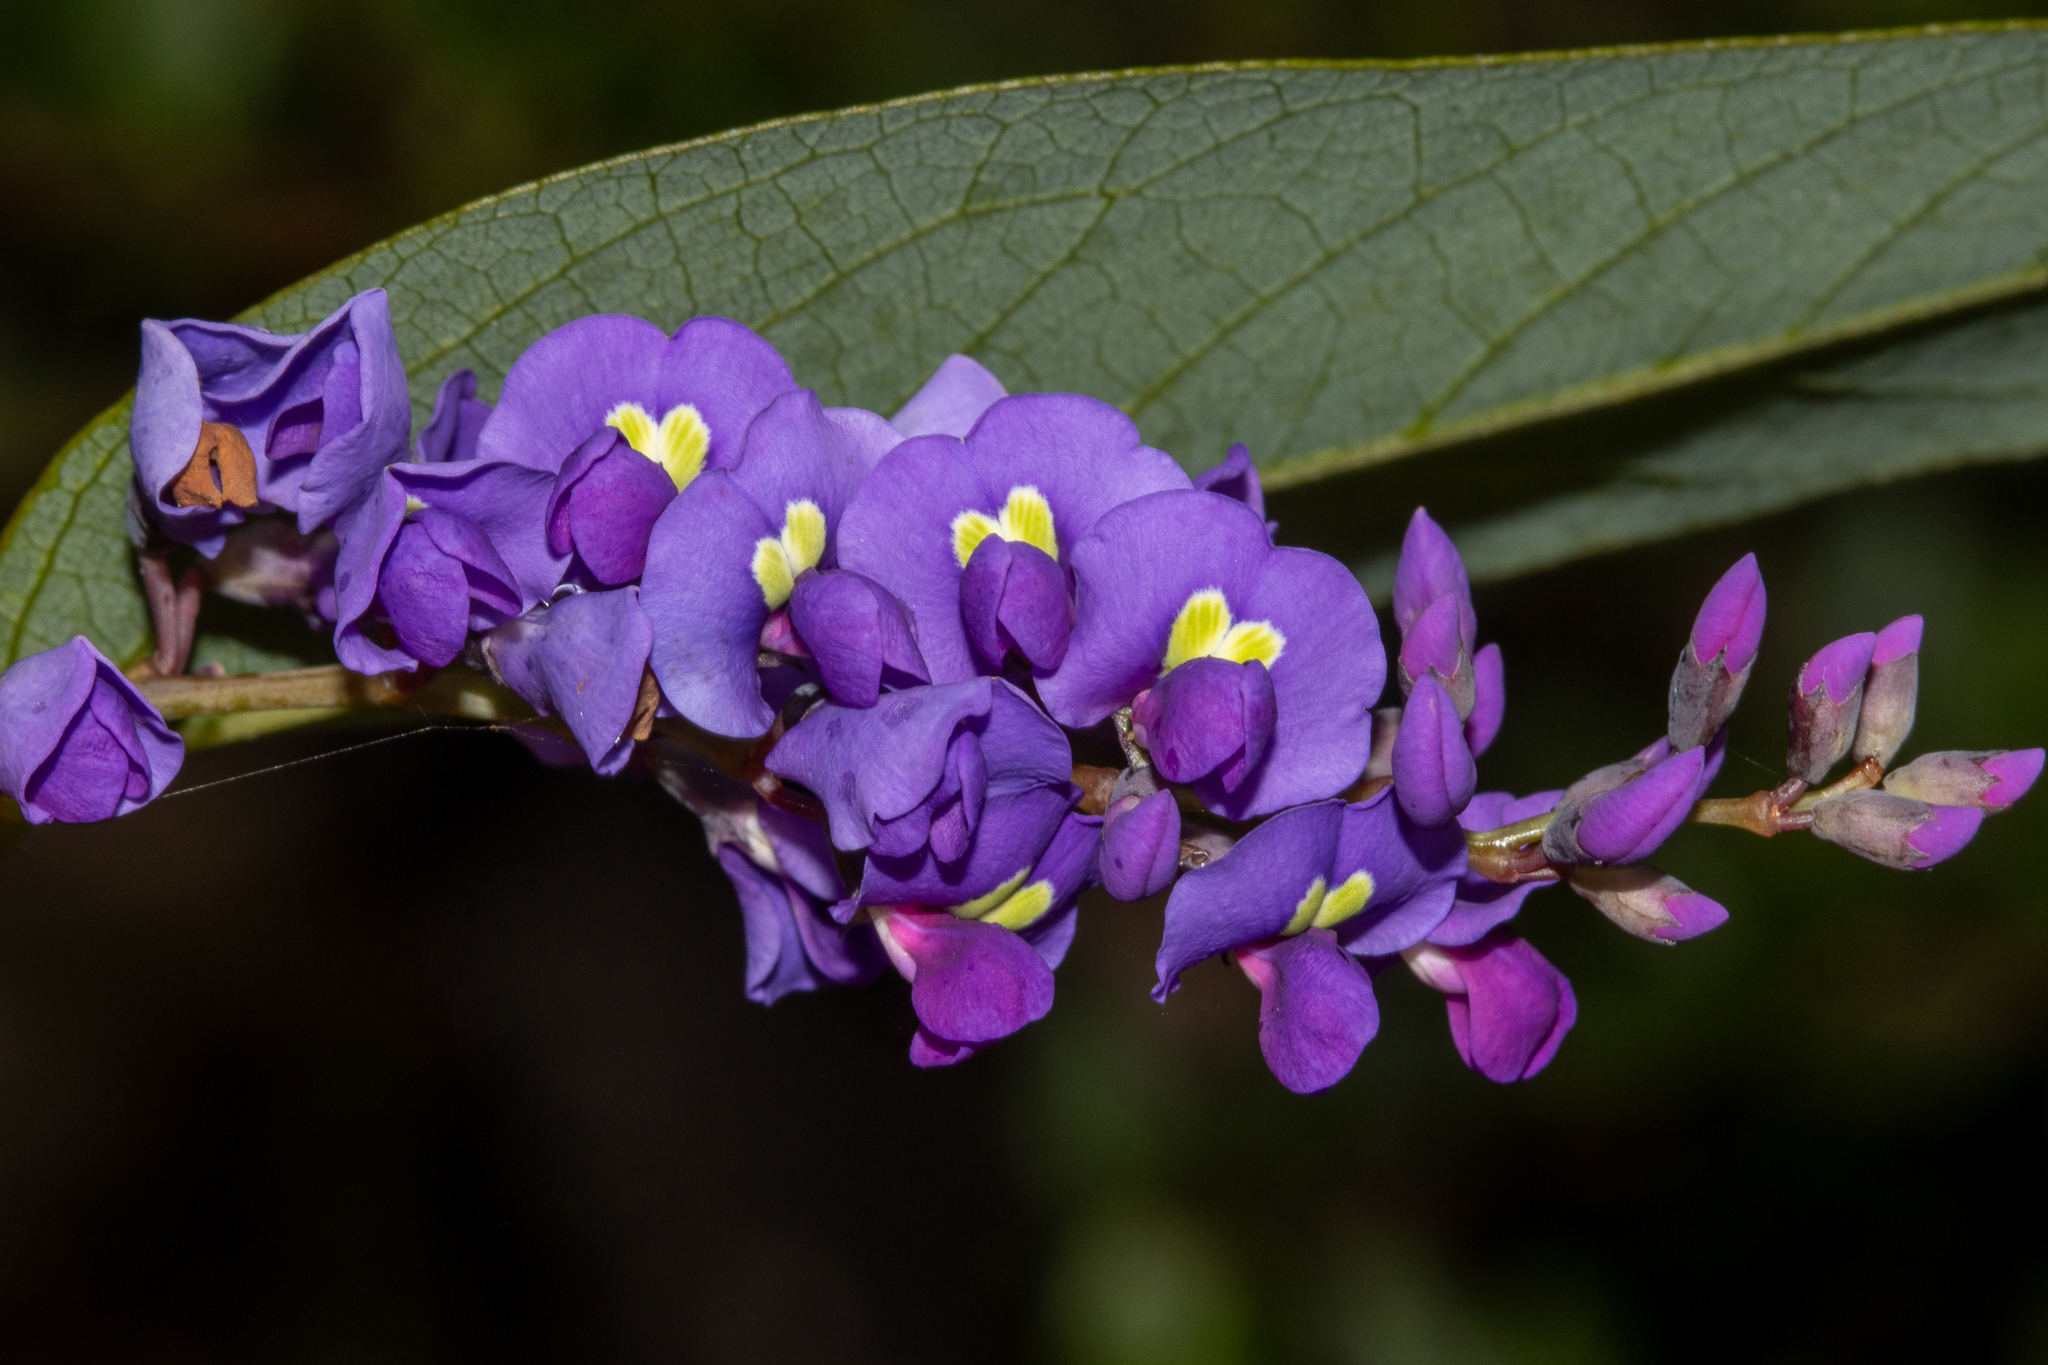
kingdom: Plantae
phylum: Tracheophyta
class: Magnoliopsida
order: Fabales
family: Fabaceae
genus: Hardenbergia
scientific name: Hardenbergia violacea
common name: Coral-pea
